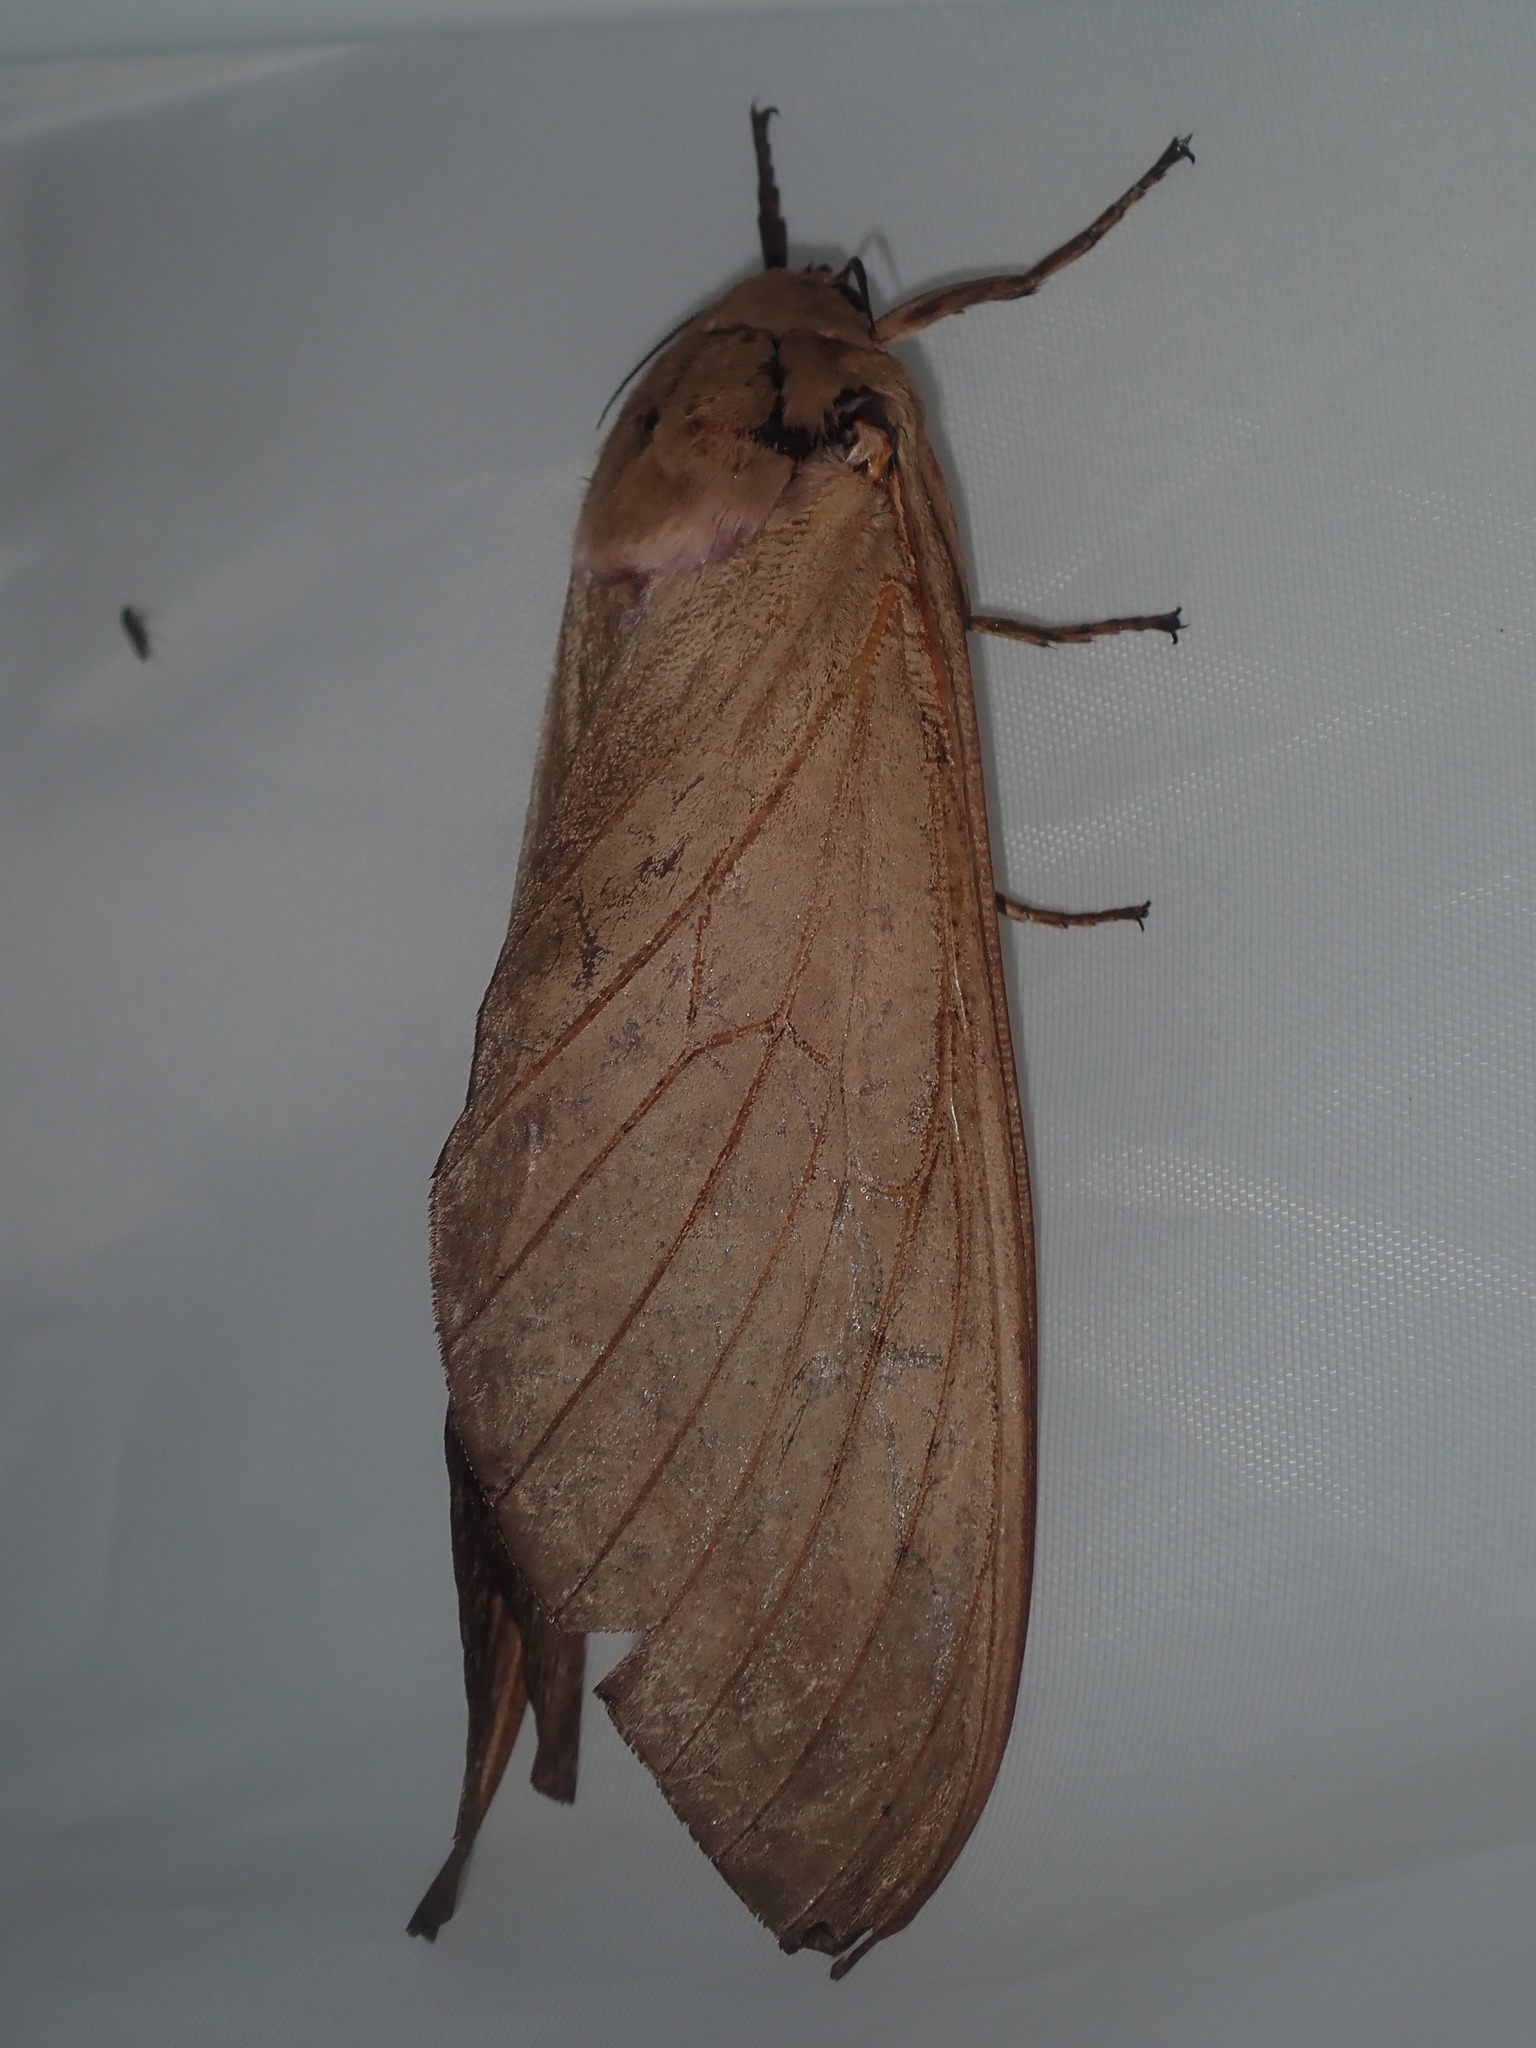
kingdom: Animalia
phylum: Arthropoda
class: Insecta
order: Lepidoptera
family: Hepialidae
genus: Abantiades
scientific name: Abantiades hyalinatus
